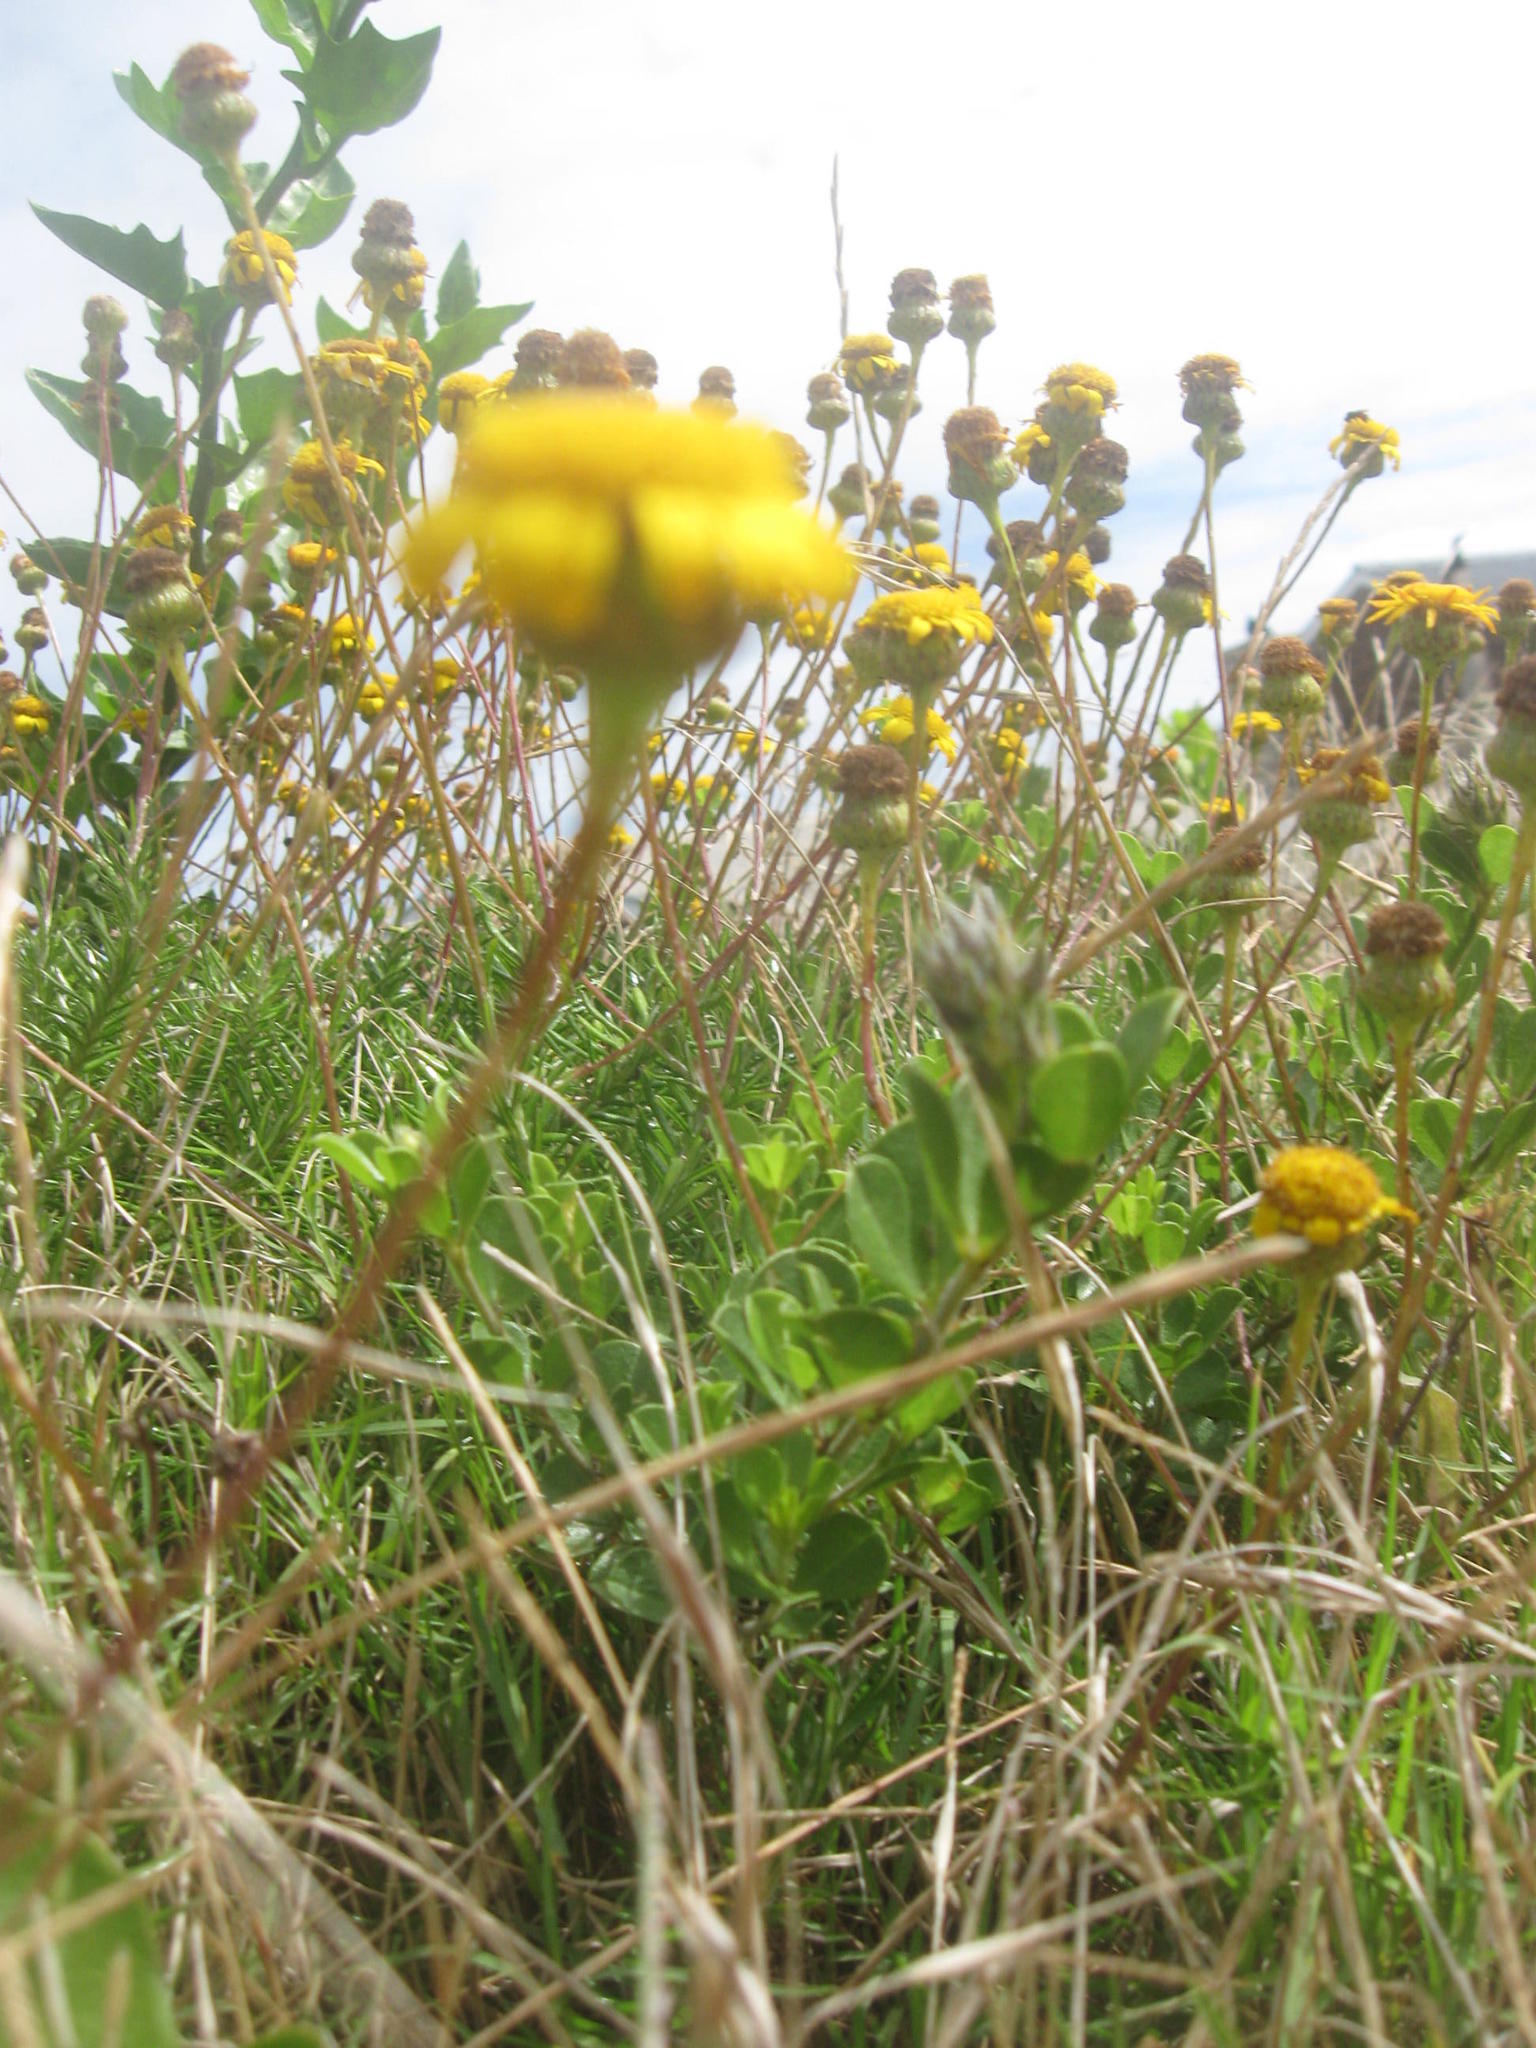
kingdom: Plantae
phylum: Tracheophyta
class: Magnoliopsida
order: Asterales
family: Asteraceae
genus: Senecio
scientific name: Senecio pillansii
